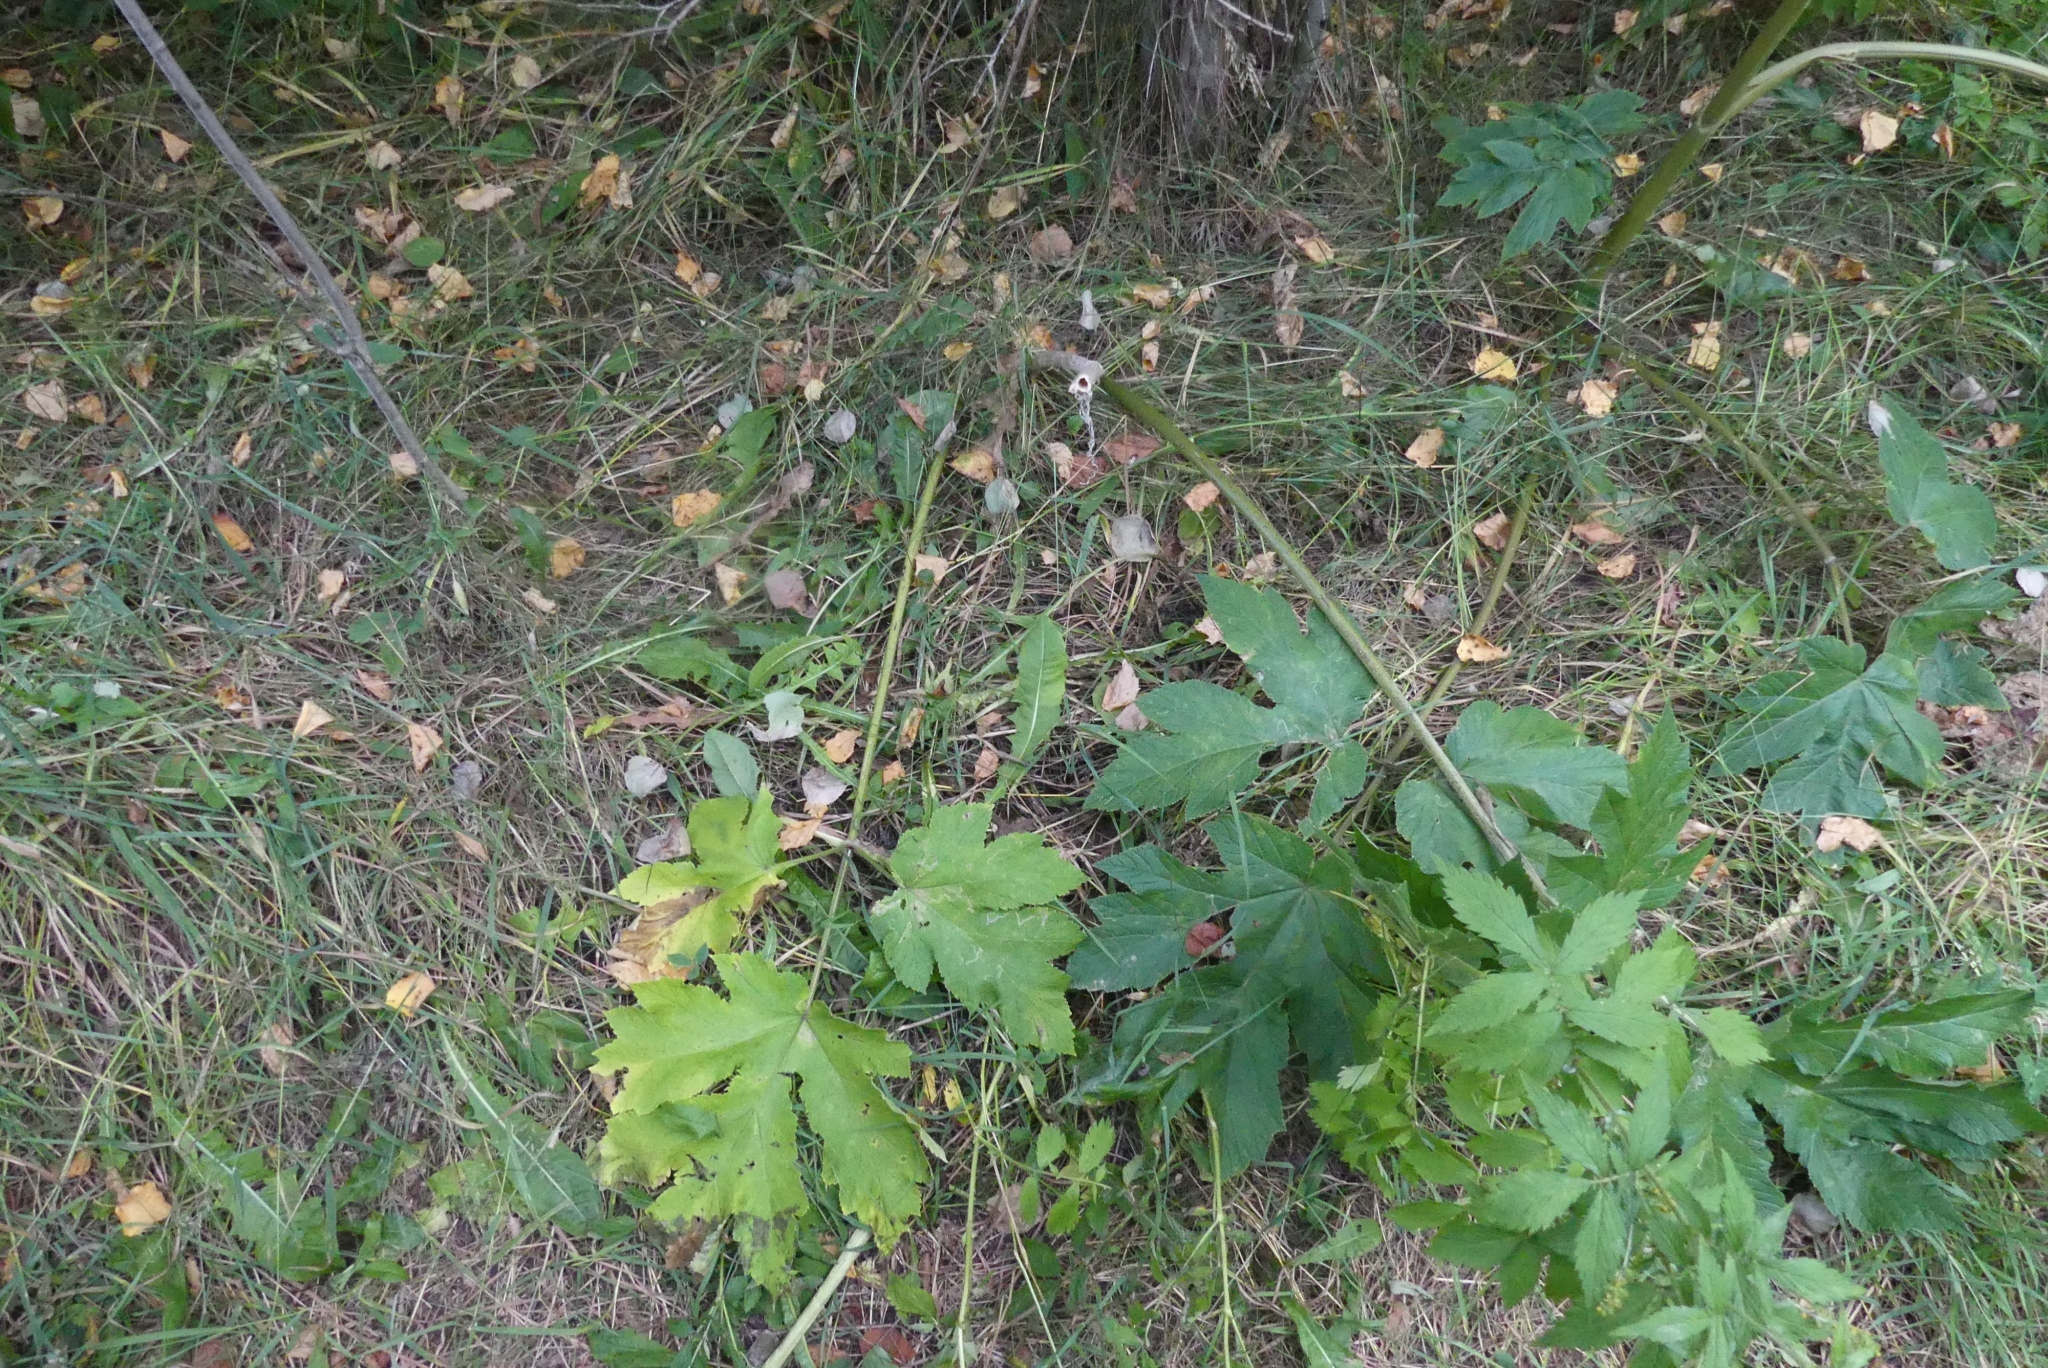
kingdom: Plantae
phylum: Tracheophyta
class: Magnoliopsida
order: Apiales
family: Apiaceae
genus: Heracleum
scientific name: Heracleum maximum
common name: American cow parsnip
